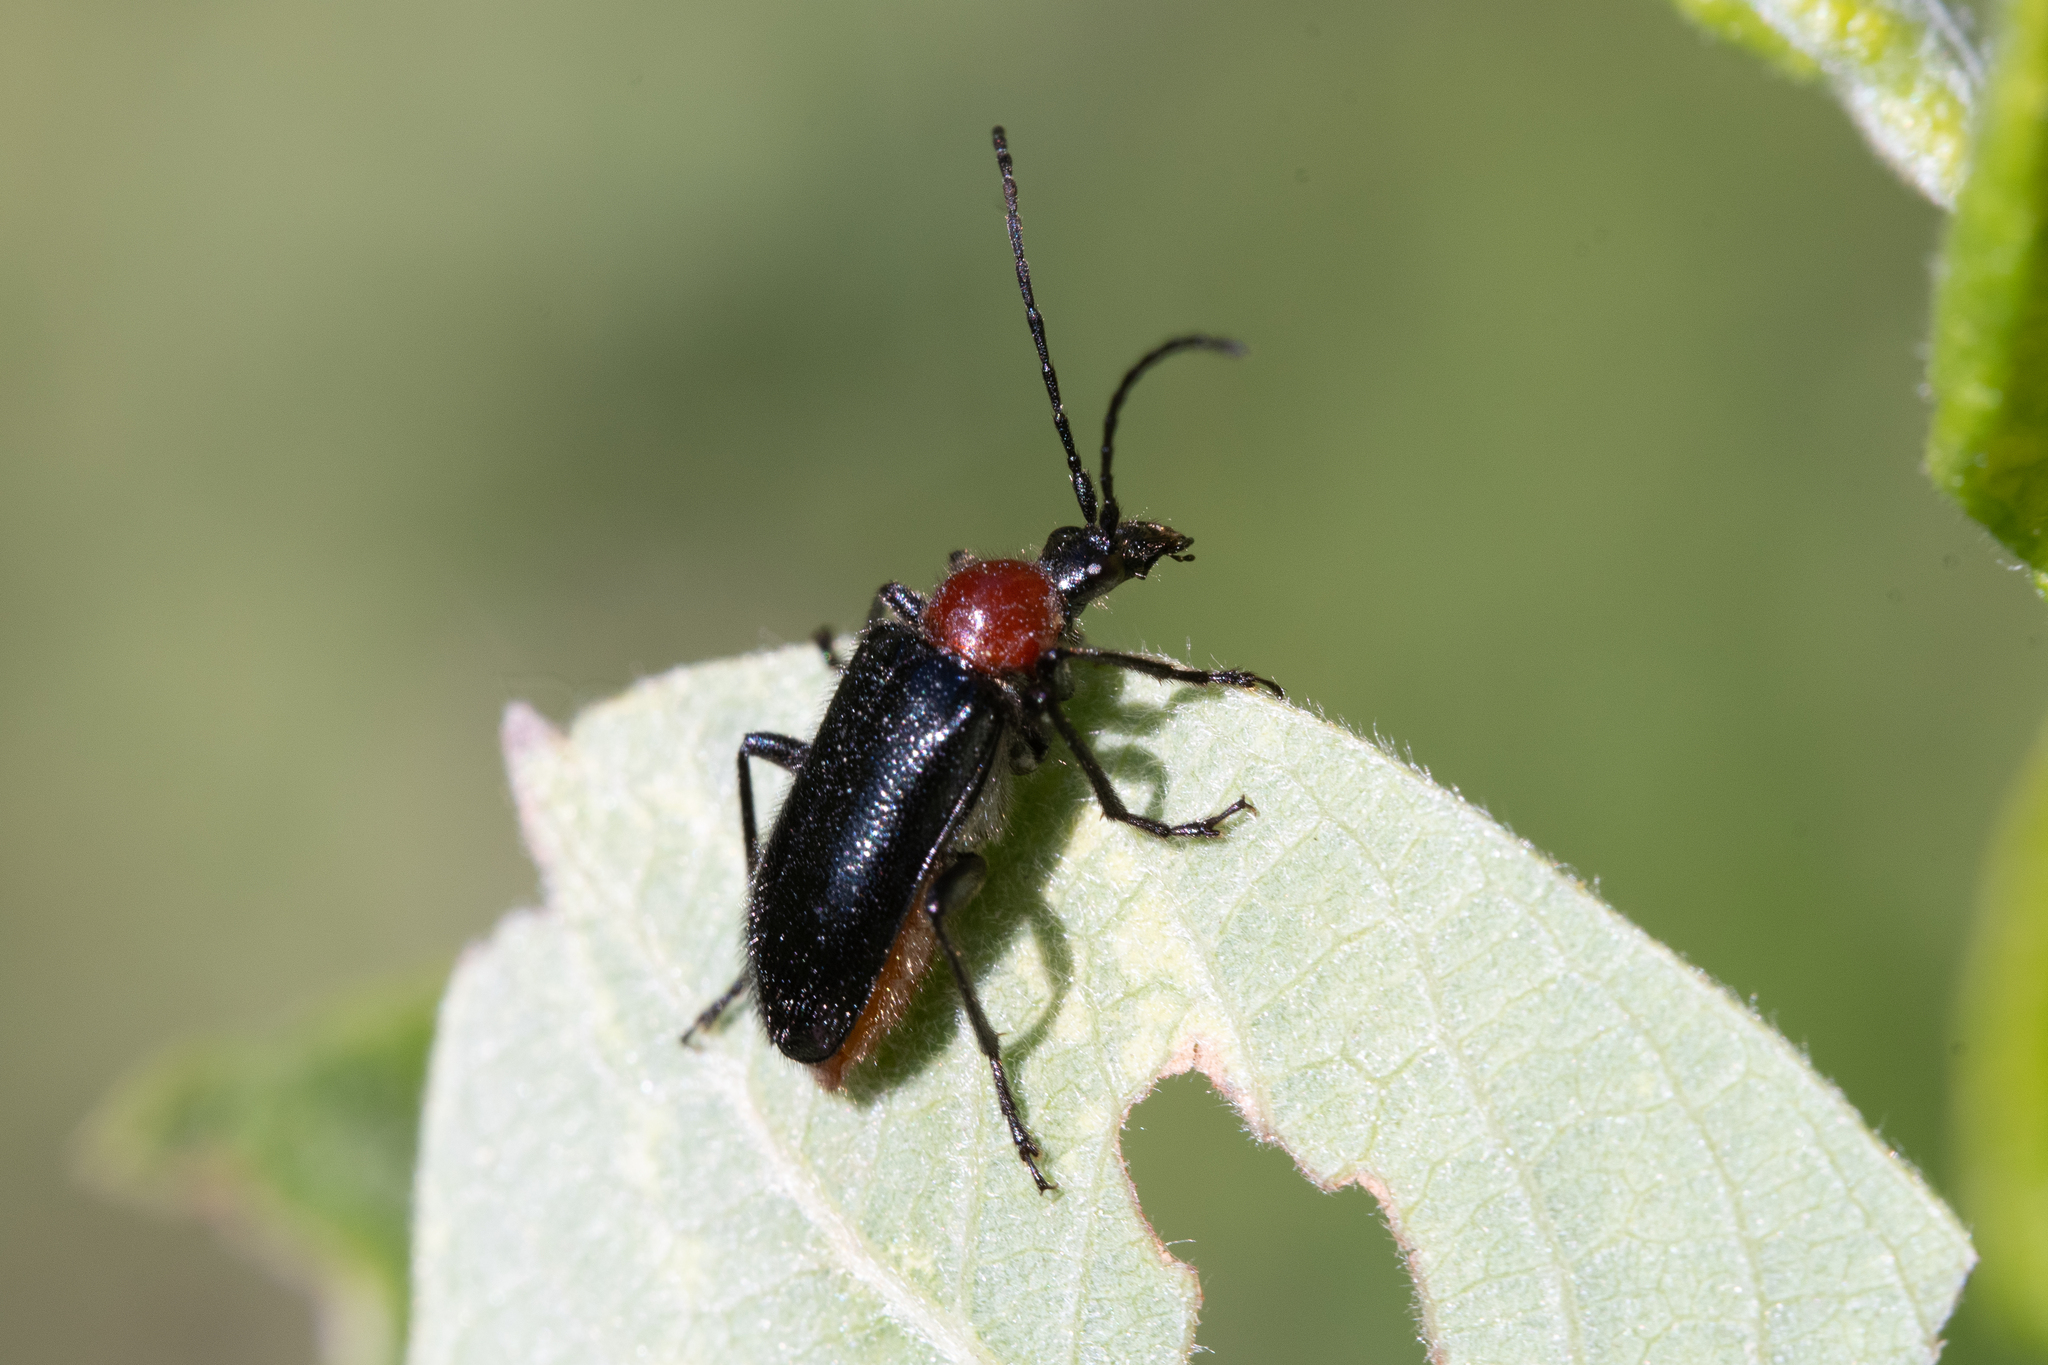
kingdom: Animalia
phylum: Arthropoda
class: Insecta
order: Coleoptera
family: Cerambycidae
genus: Dinoptera
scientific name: Dinoptera collaris
